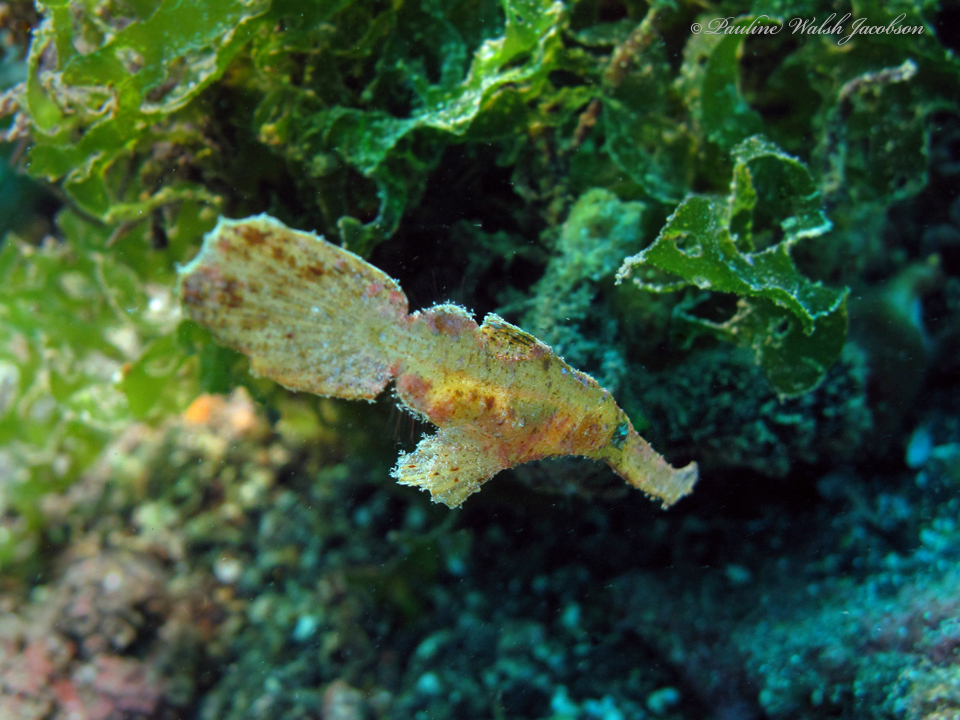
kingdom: Animalia
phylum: Chordata
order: Syngnathiformes
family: Solenostomidae
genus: Solenostomus
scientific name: Solenostomus cyanopterus
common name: Blue-finned ghost pipefish
